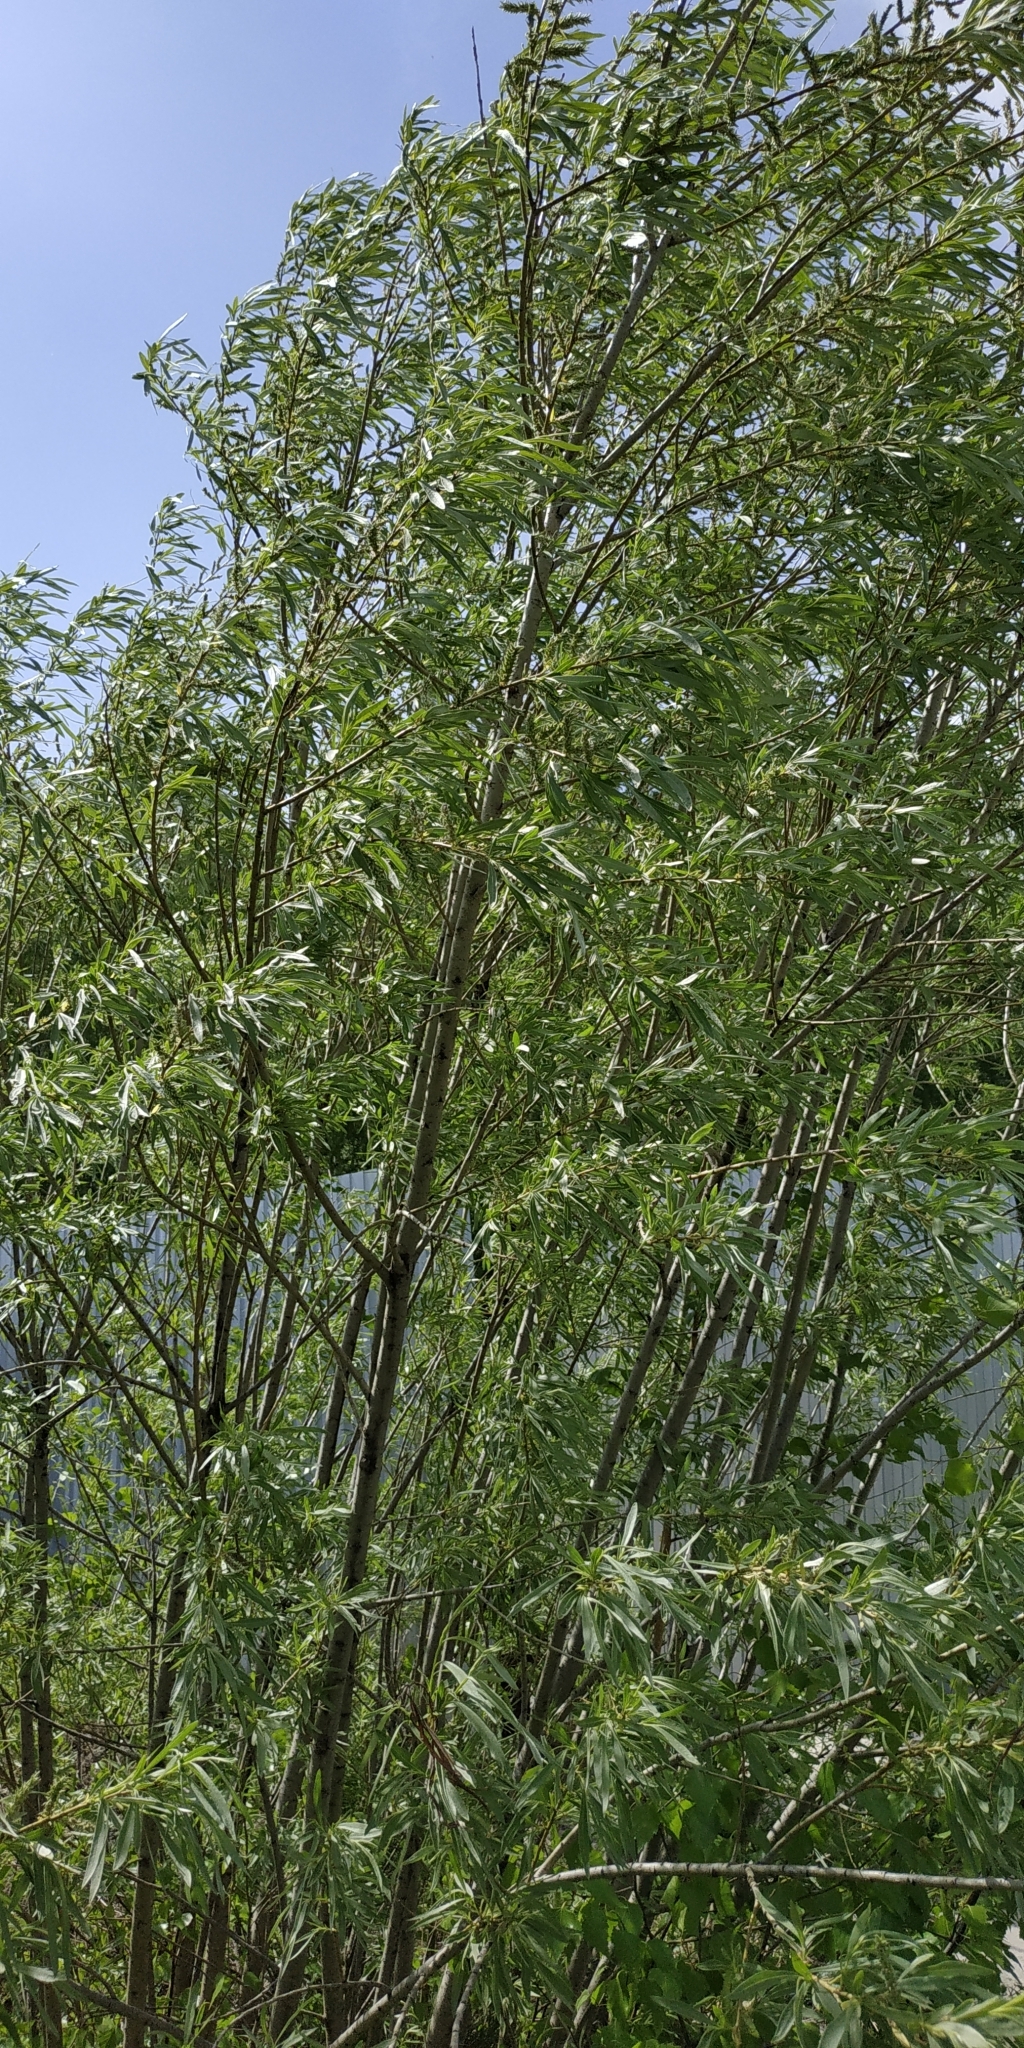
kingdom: Plantae
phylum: Tracheophyta
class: Magnoliopsida
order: Malpighiales
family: Salicaceae
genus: Salix
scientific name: Salix viminalis
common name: Osier
